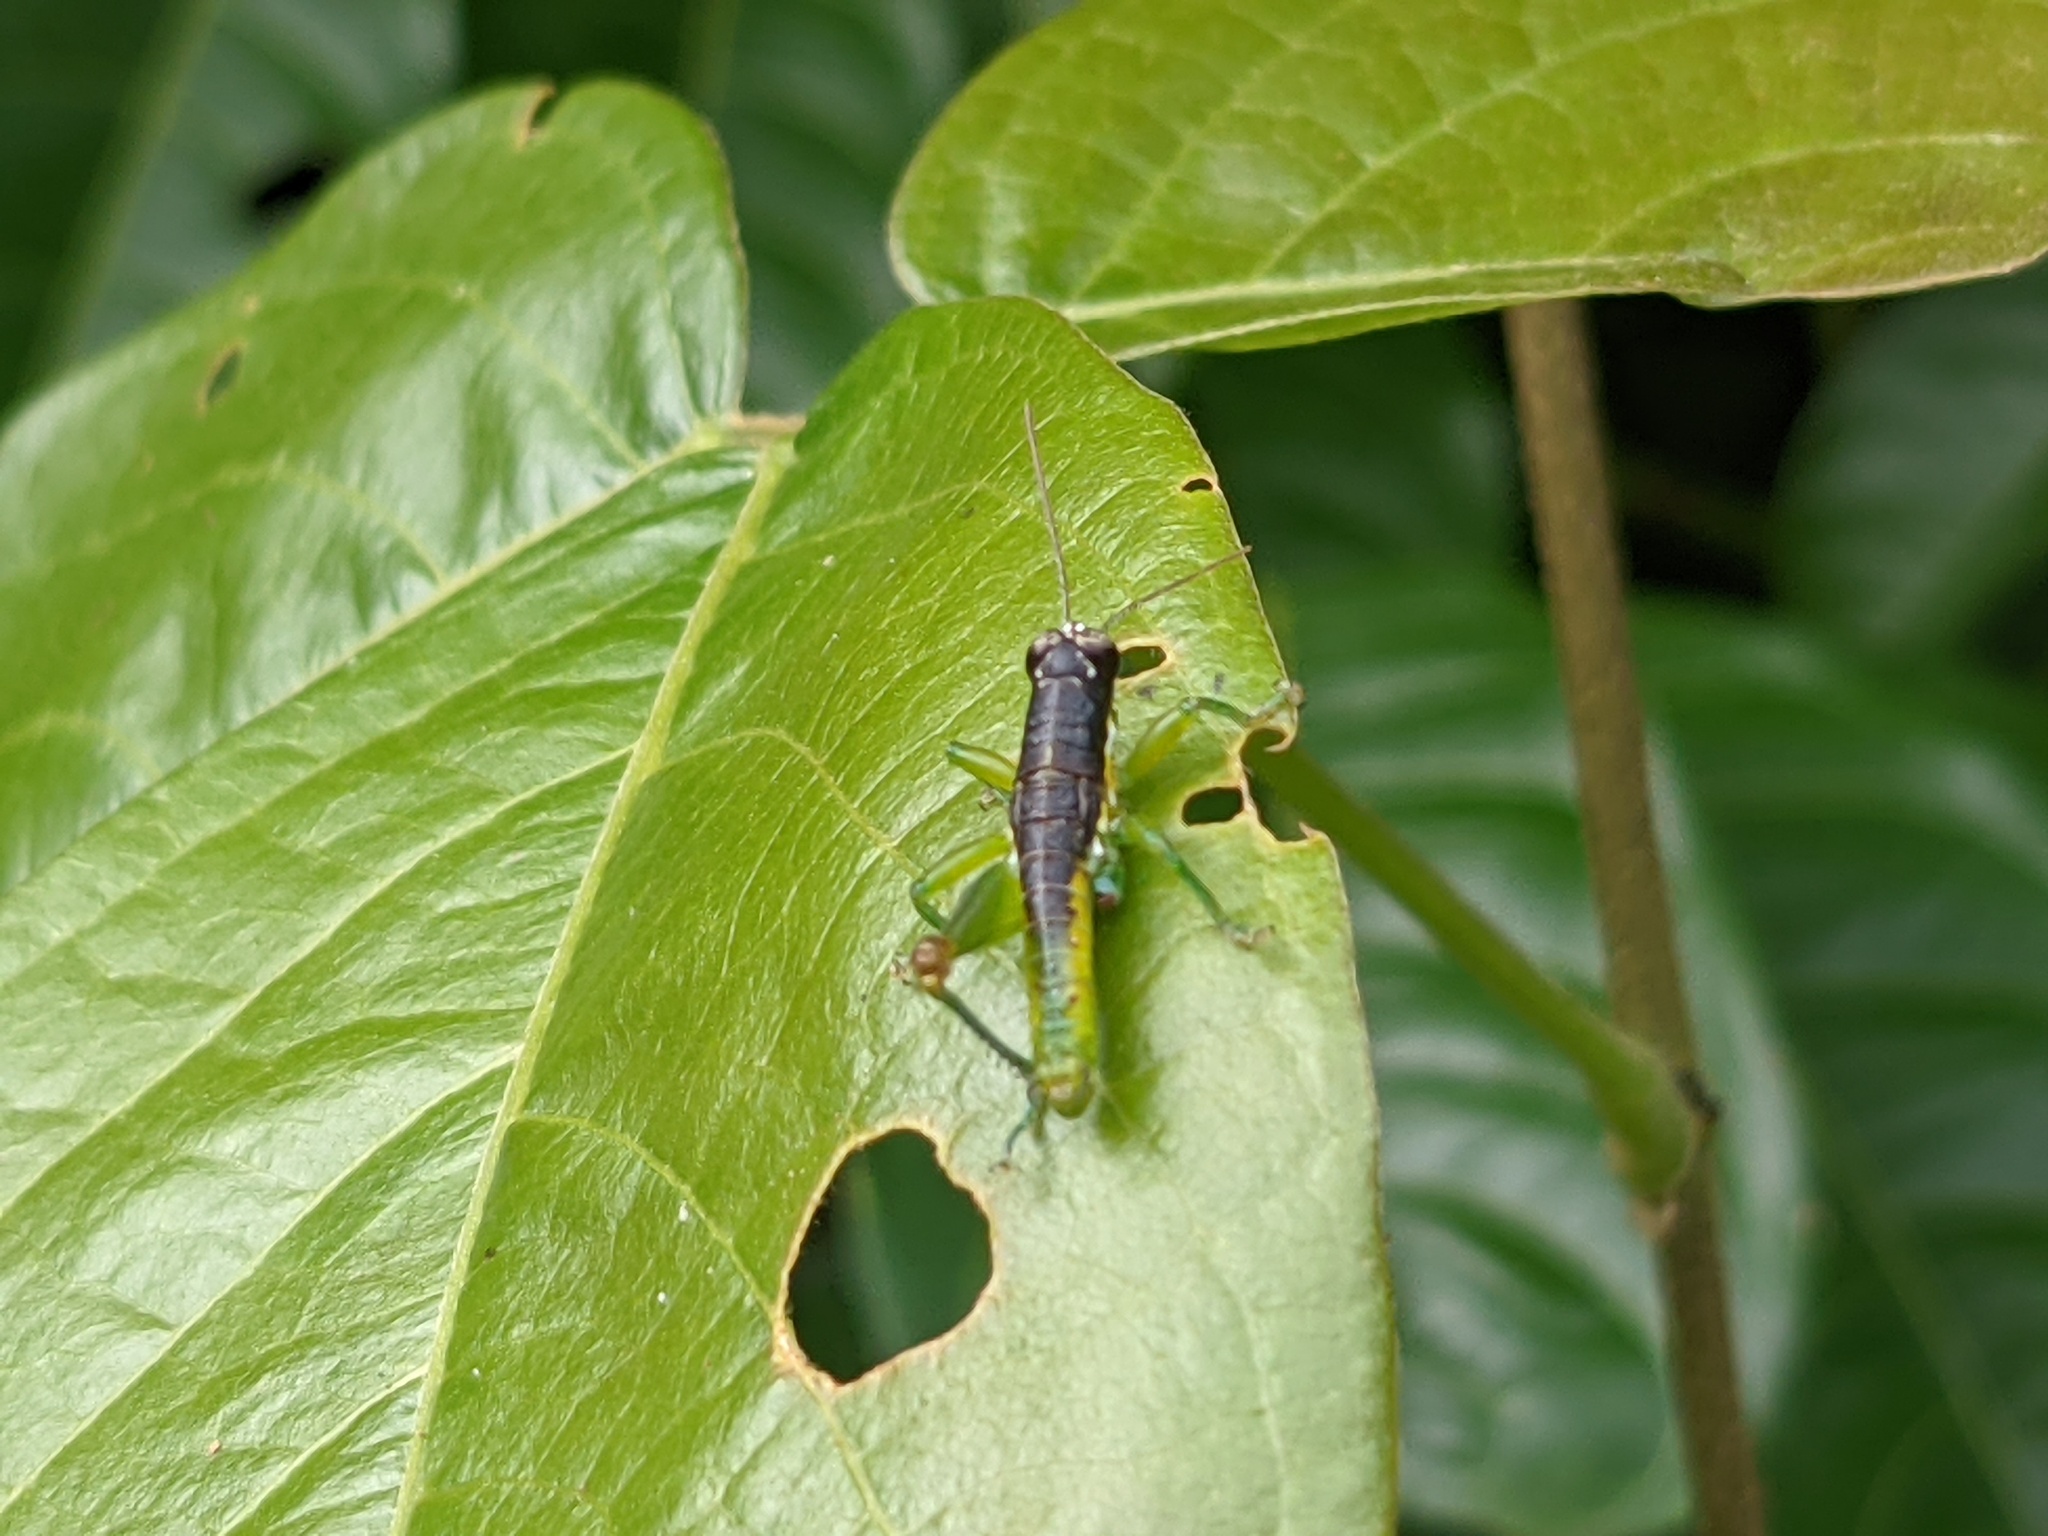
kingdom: Animalia
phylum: Arthropoda
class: Insecta
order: Orthoptera
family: Acrididae
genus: Liebermannacris
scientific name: Liebermannacris dorsualis
